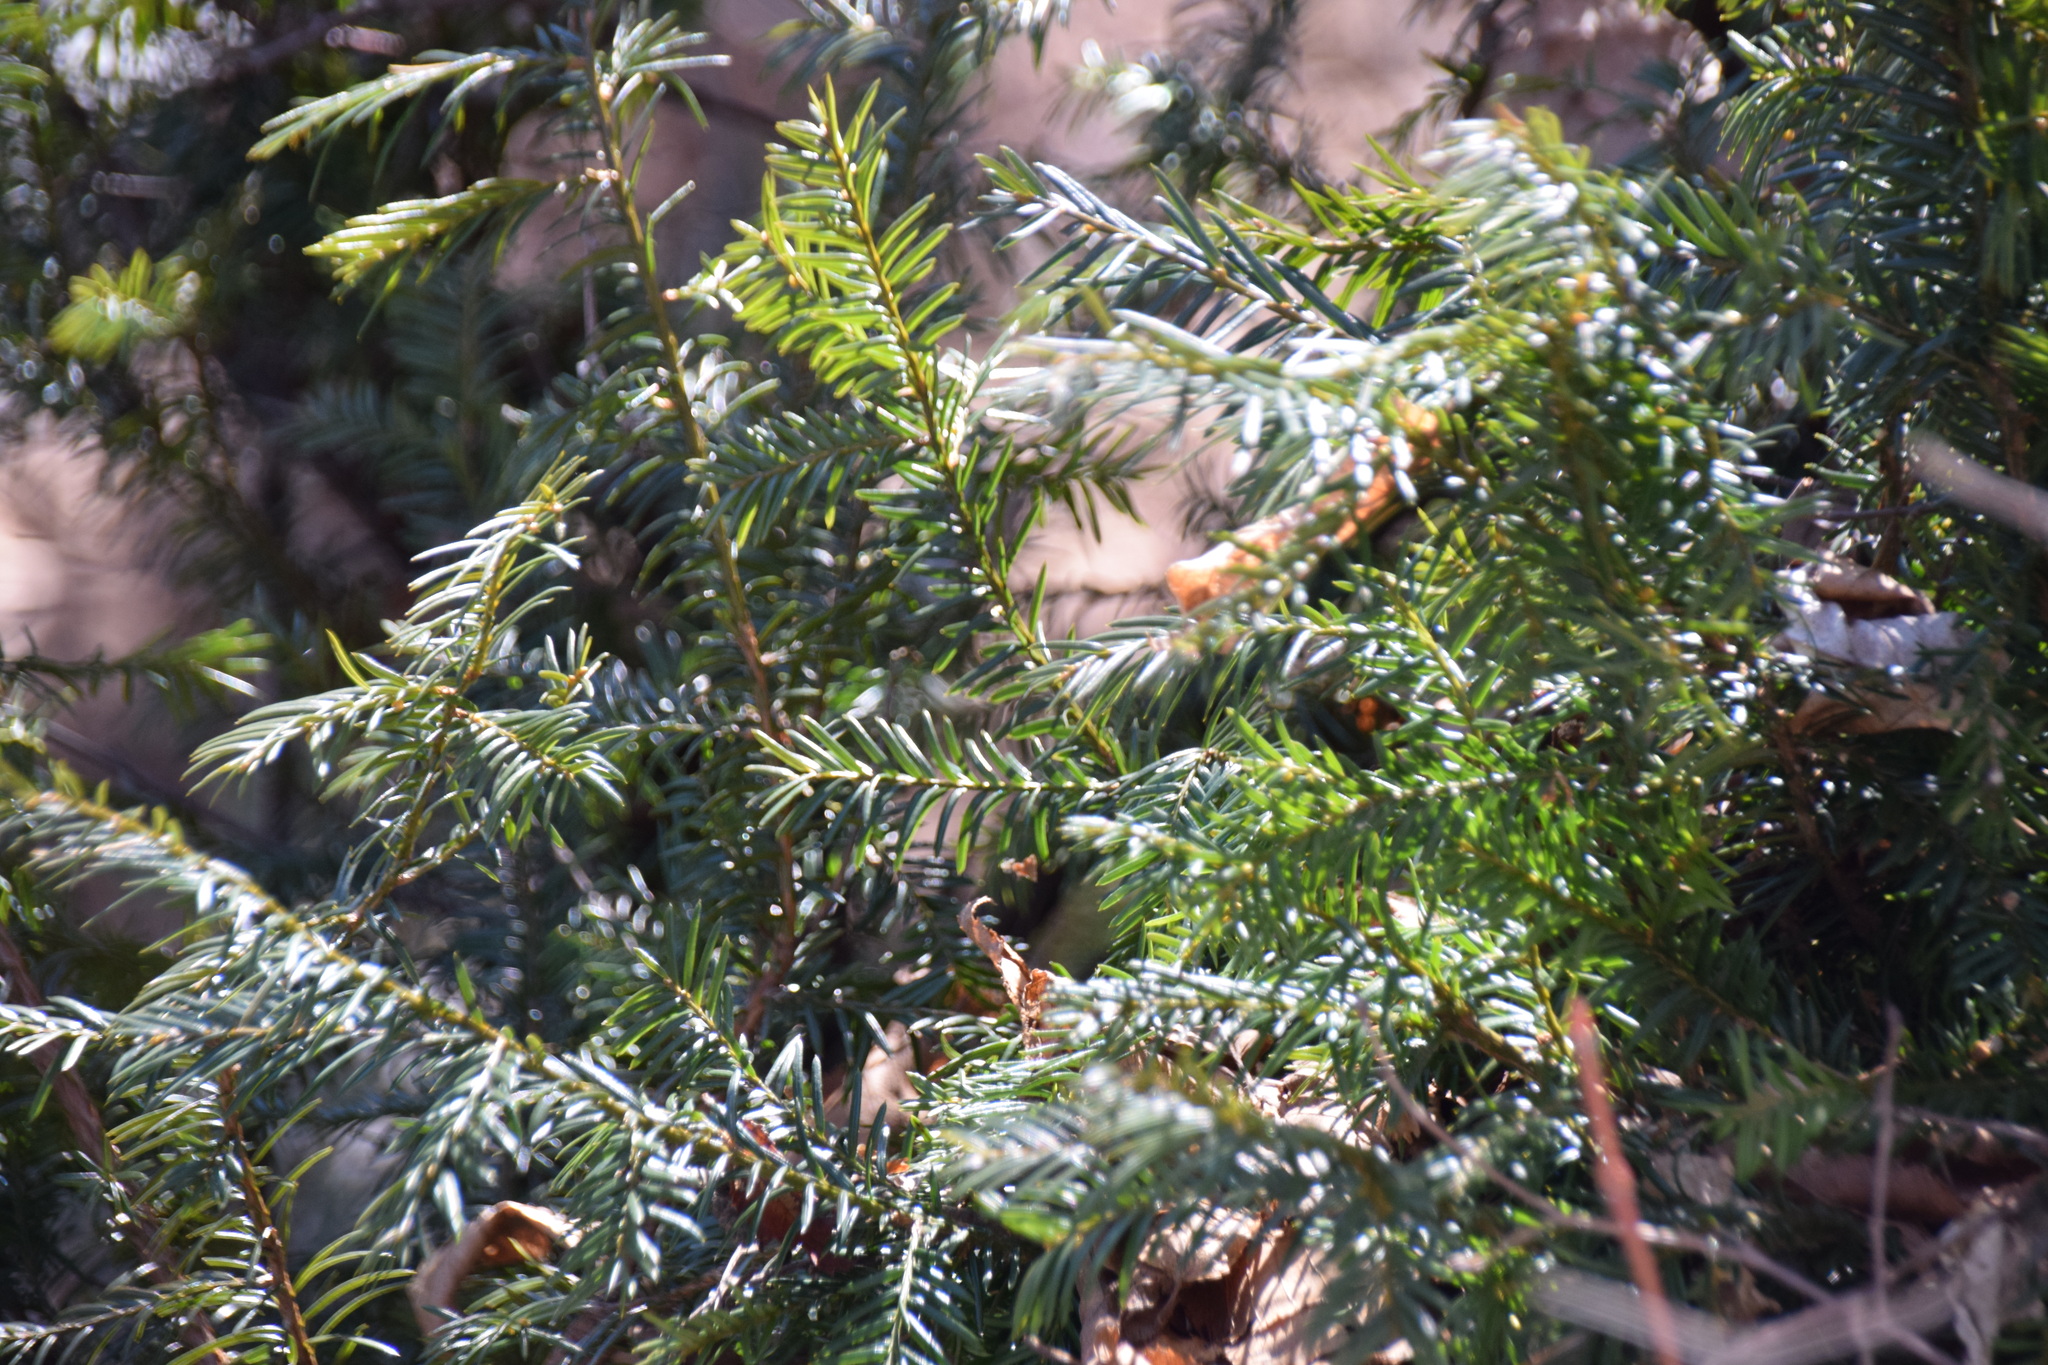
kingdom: Plantae
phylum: Tracheophyta
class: Pinopsida
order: Pinales
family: Taxaceae
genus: Taxus
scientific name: Taxus canadensis
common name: American yew
